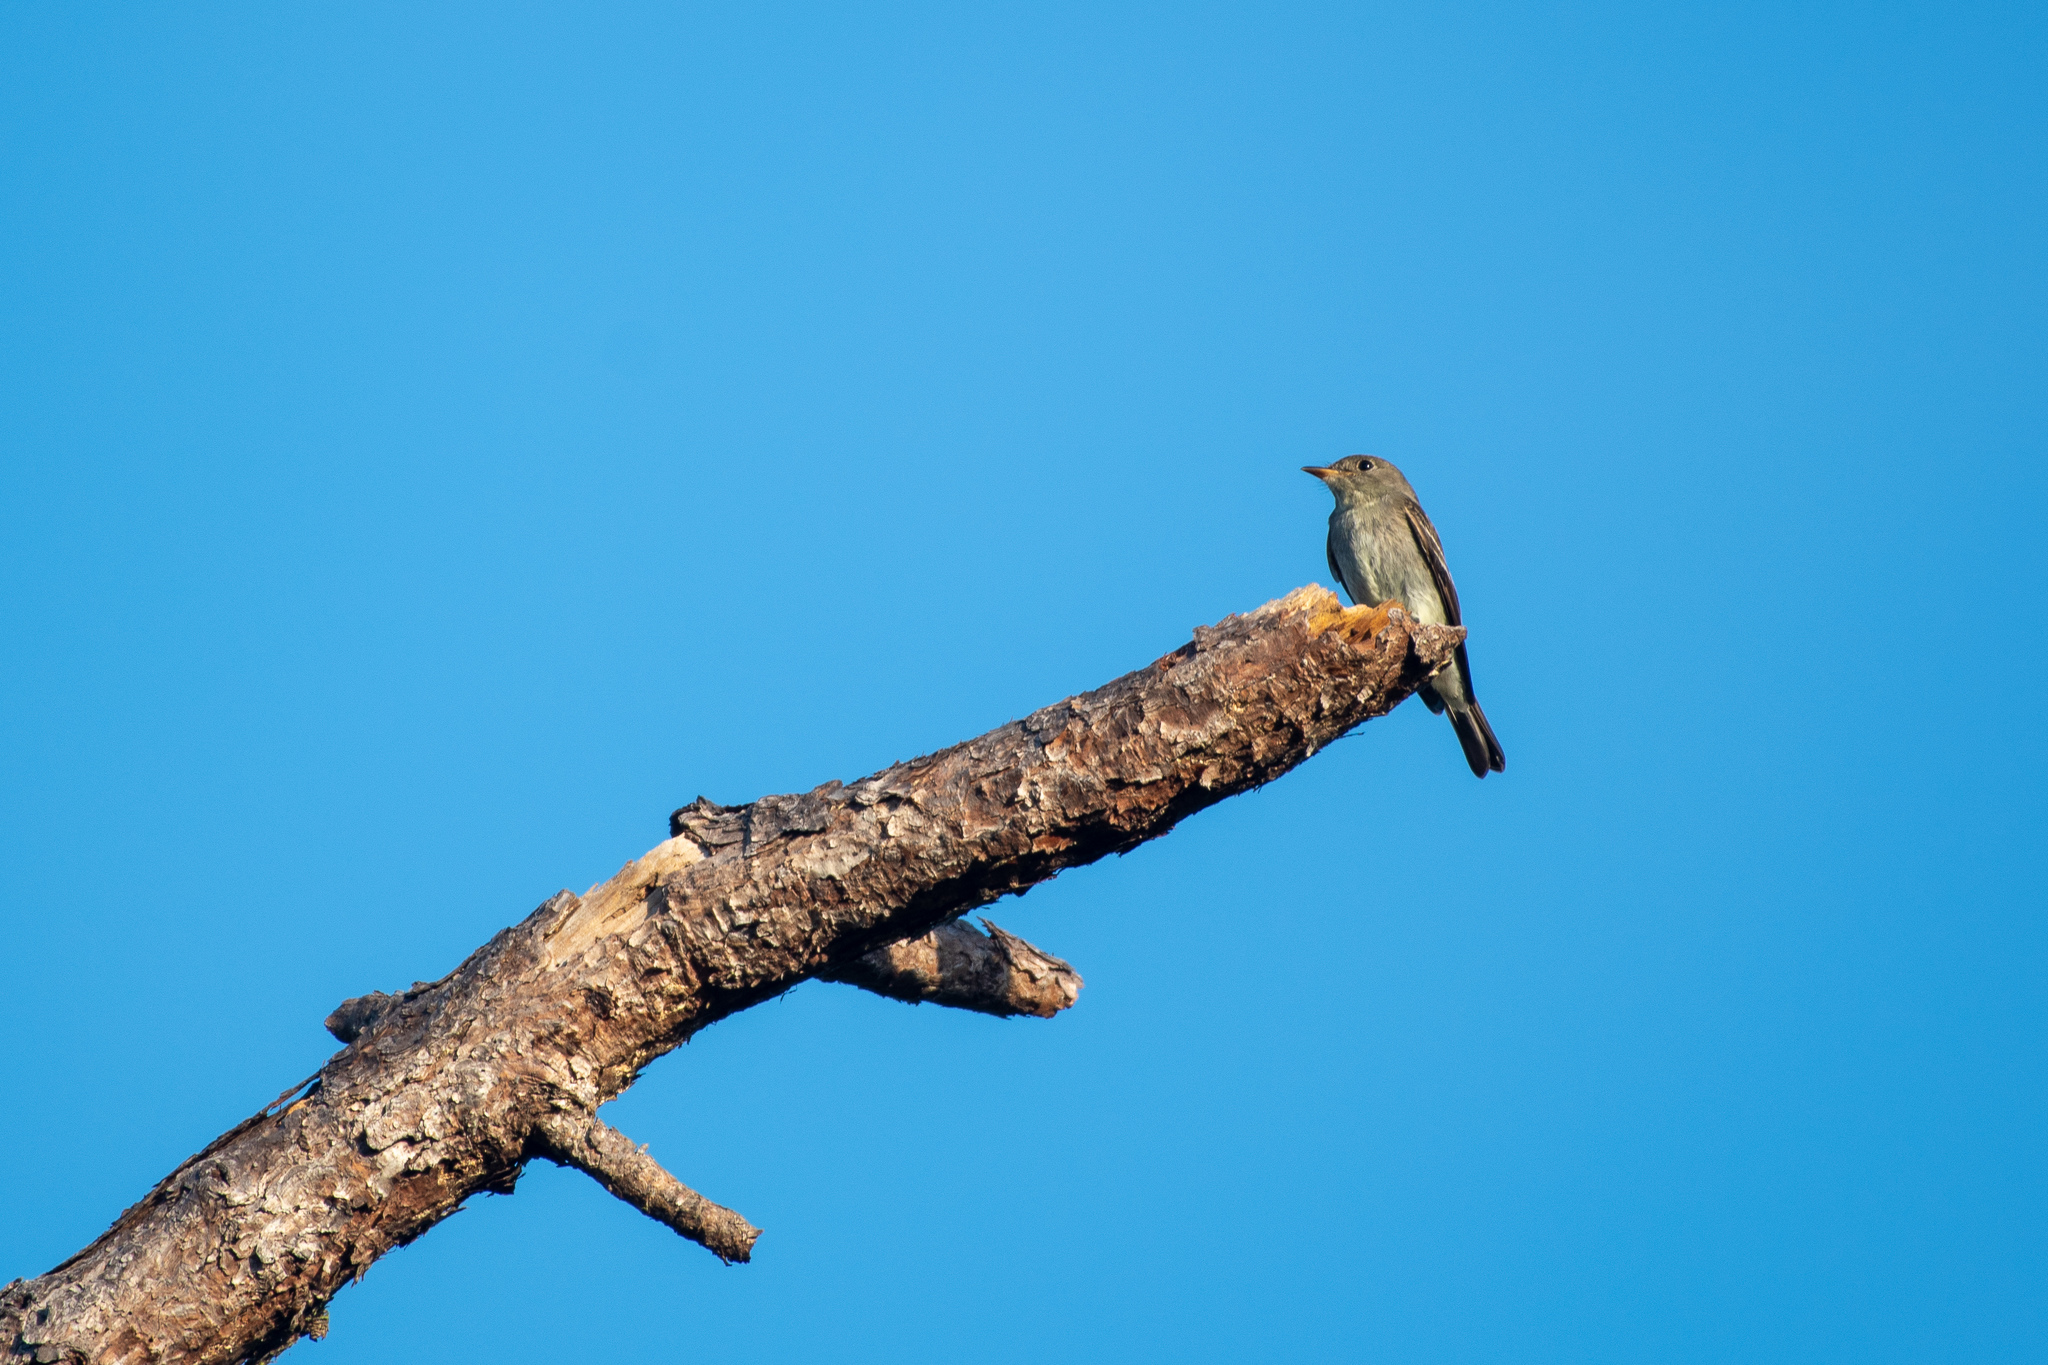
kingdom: Animalia
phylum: Chordata
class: Aves
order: Passeriformes
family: Tyrannidae
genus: Contopus
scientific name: Contopus virens
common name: Eastern wood-pewee
